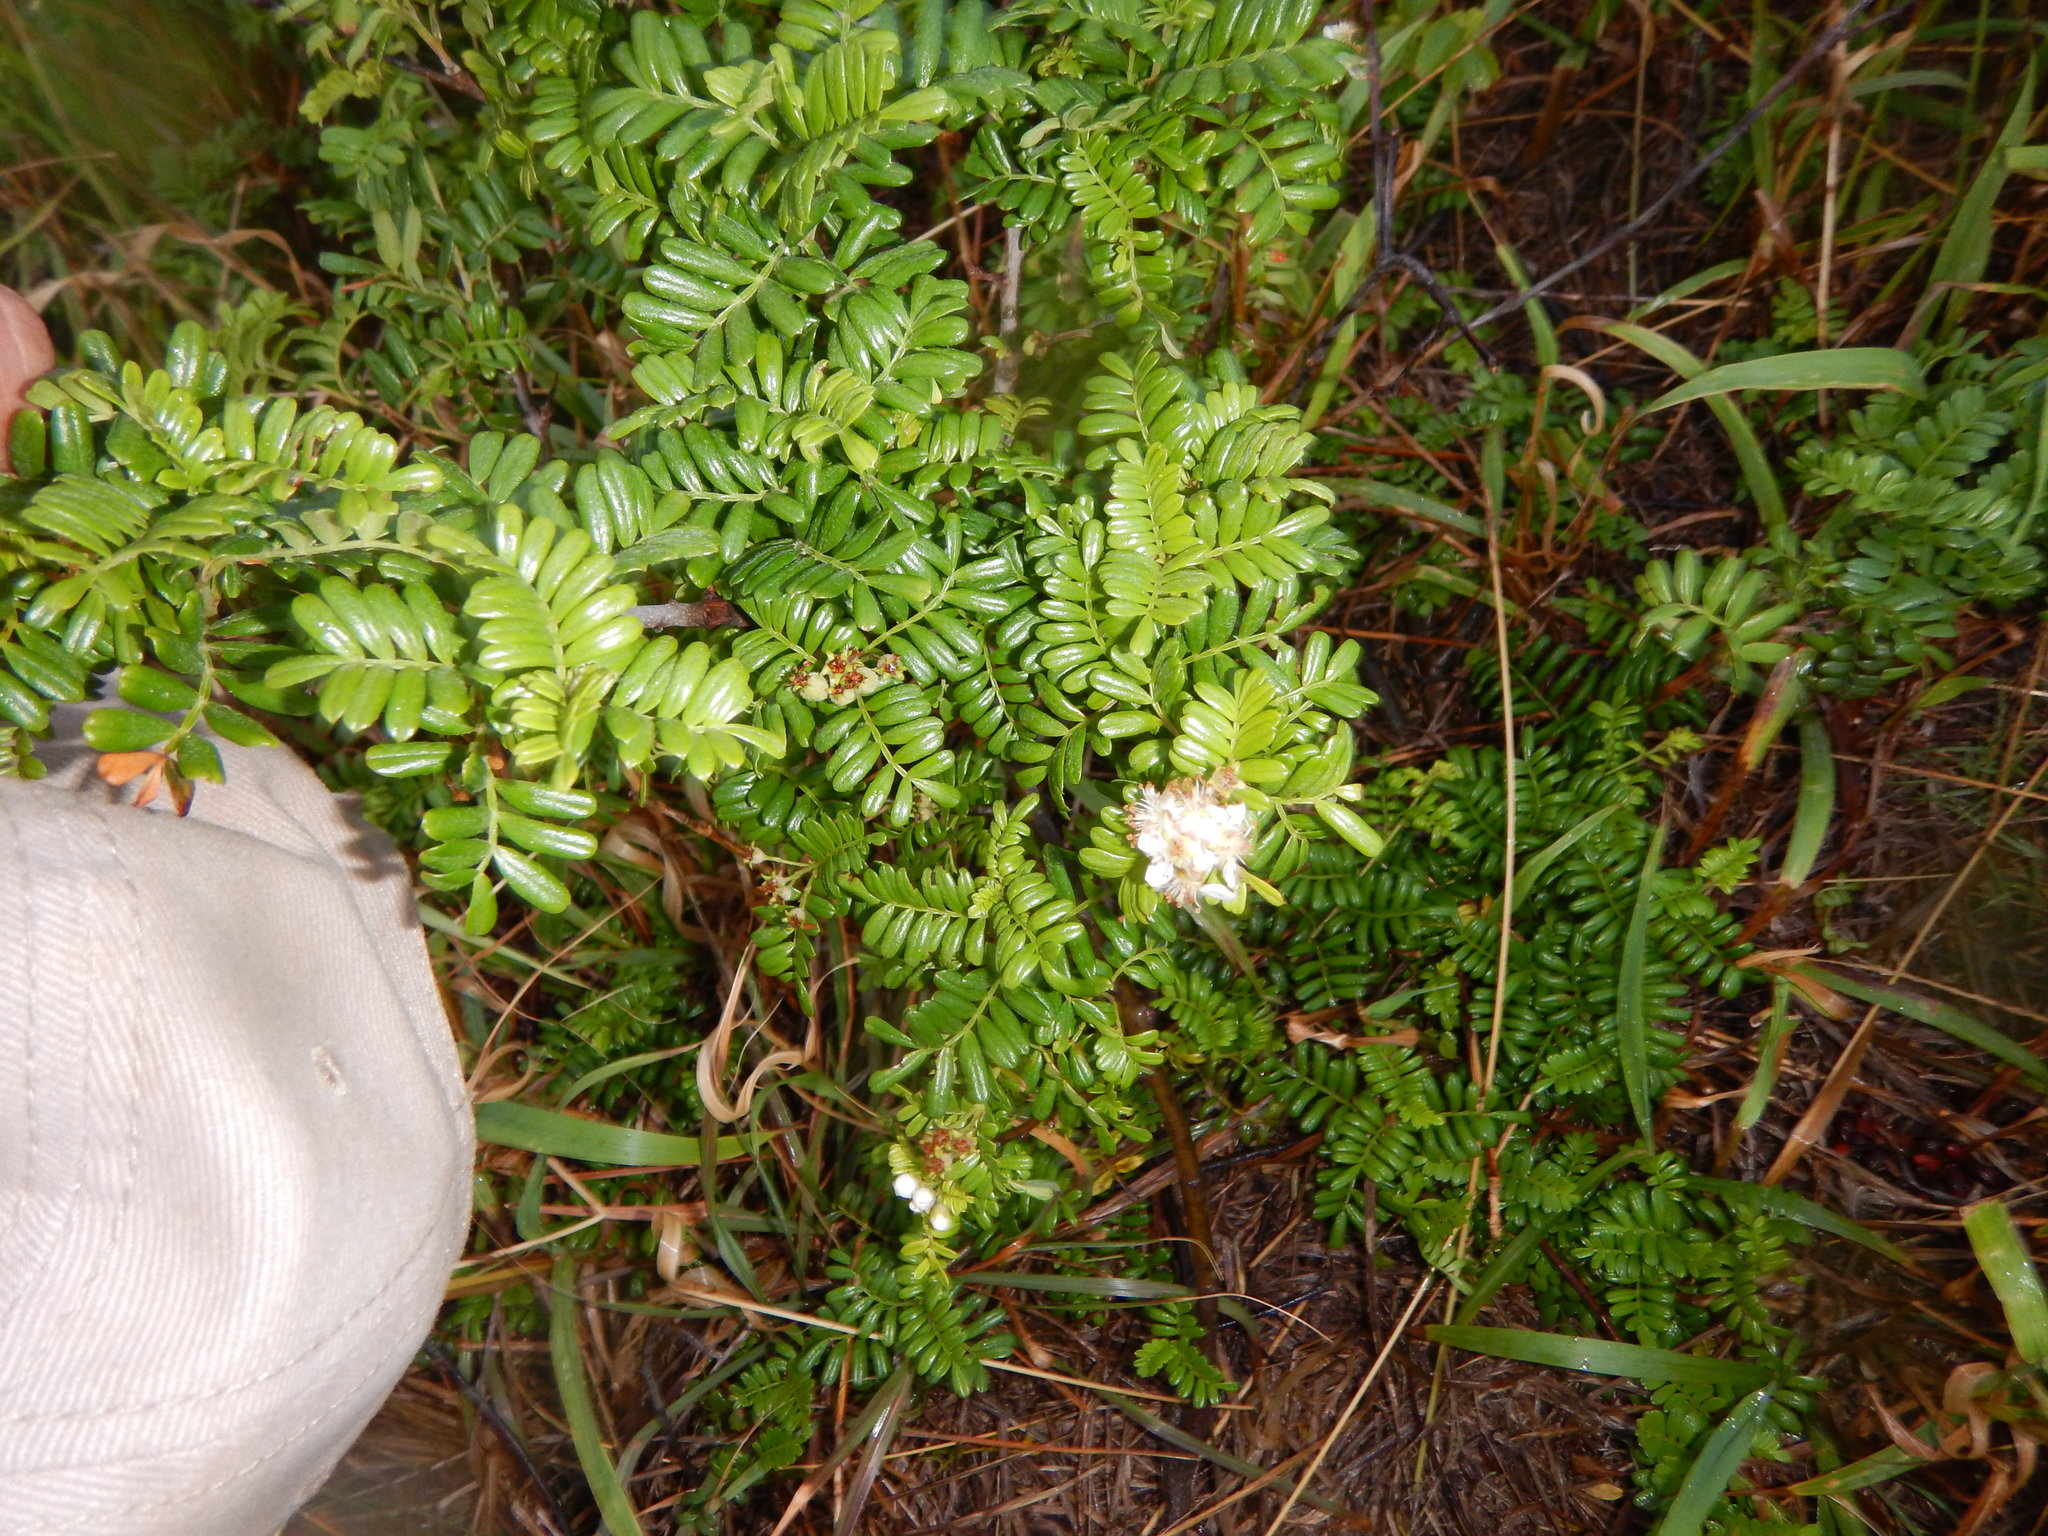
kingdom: Plantae
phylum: Tracheophyta
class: Magnoliopsida
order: Rosales
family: Rosaceae
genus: Osteomeles
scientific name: Osteomeles anthyllidifolia
